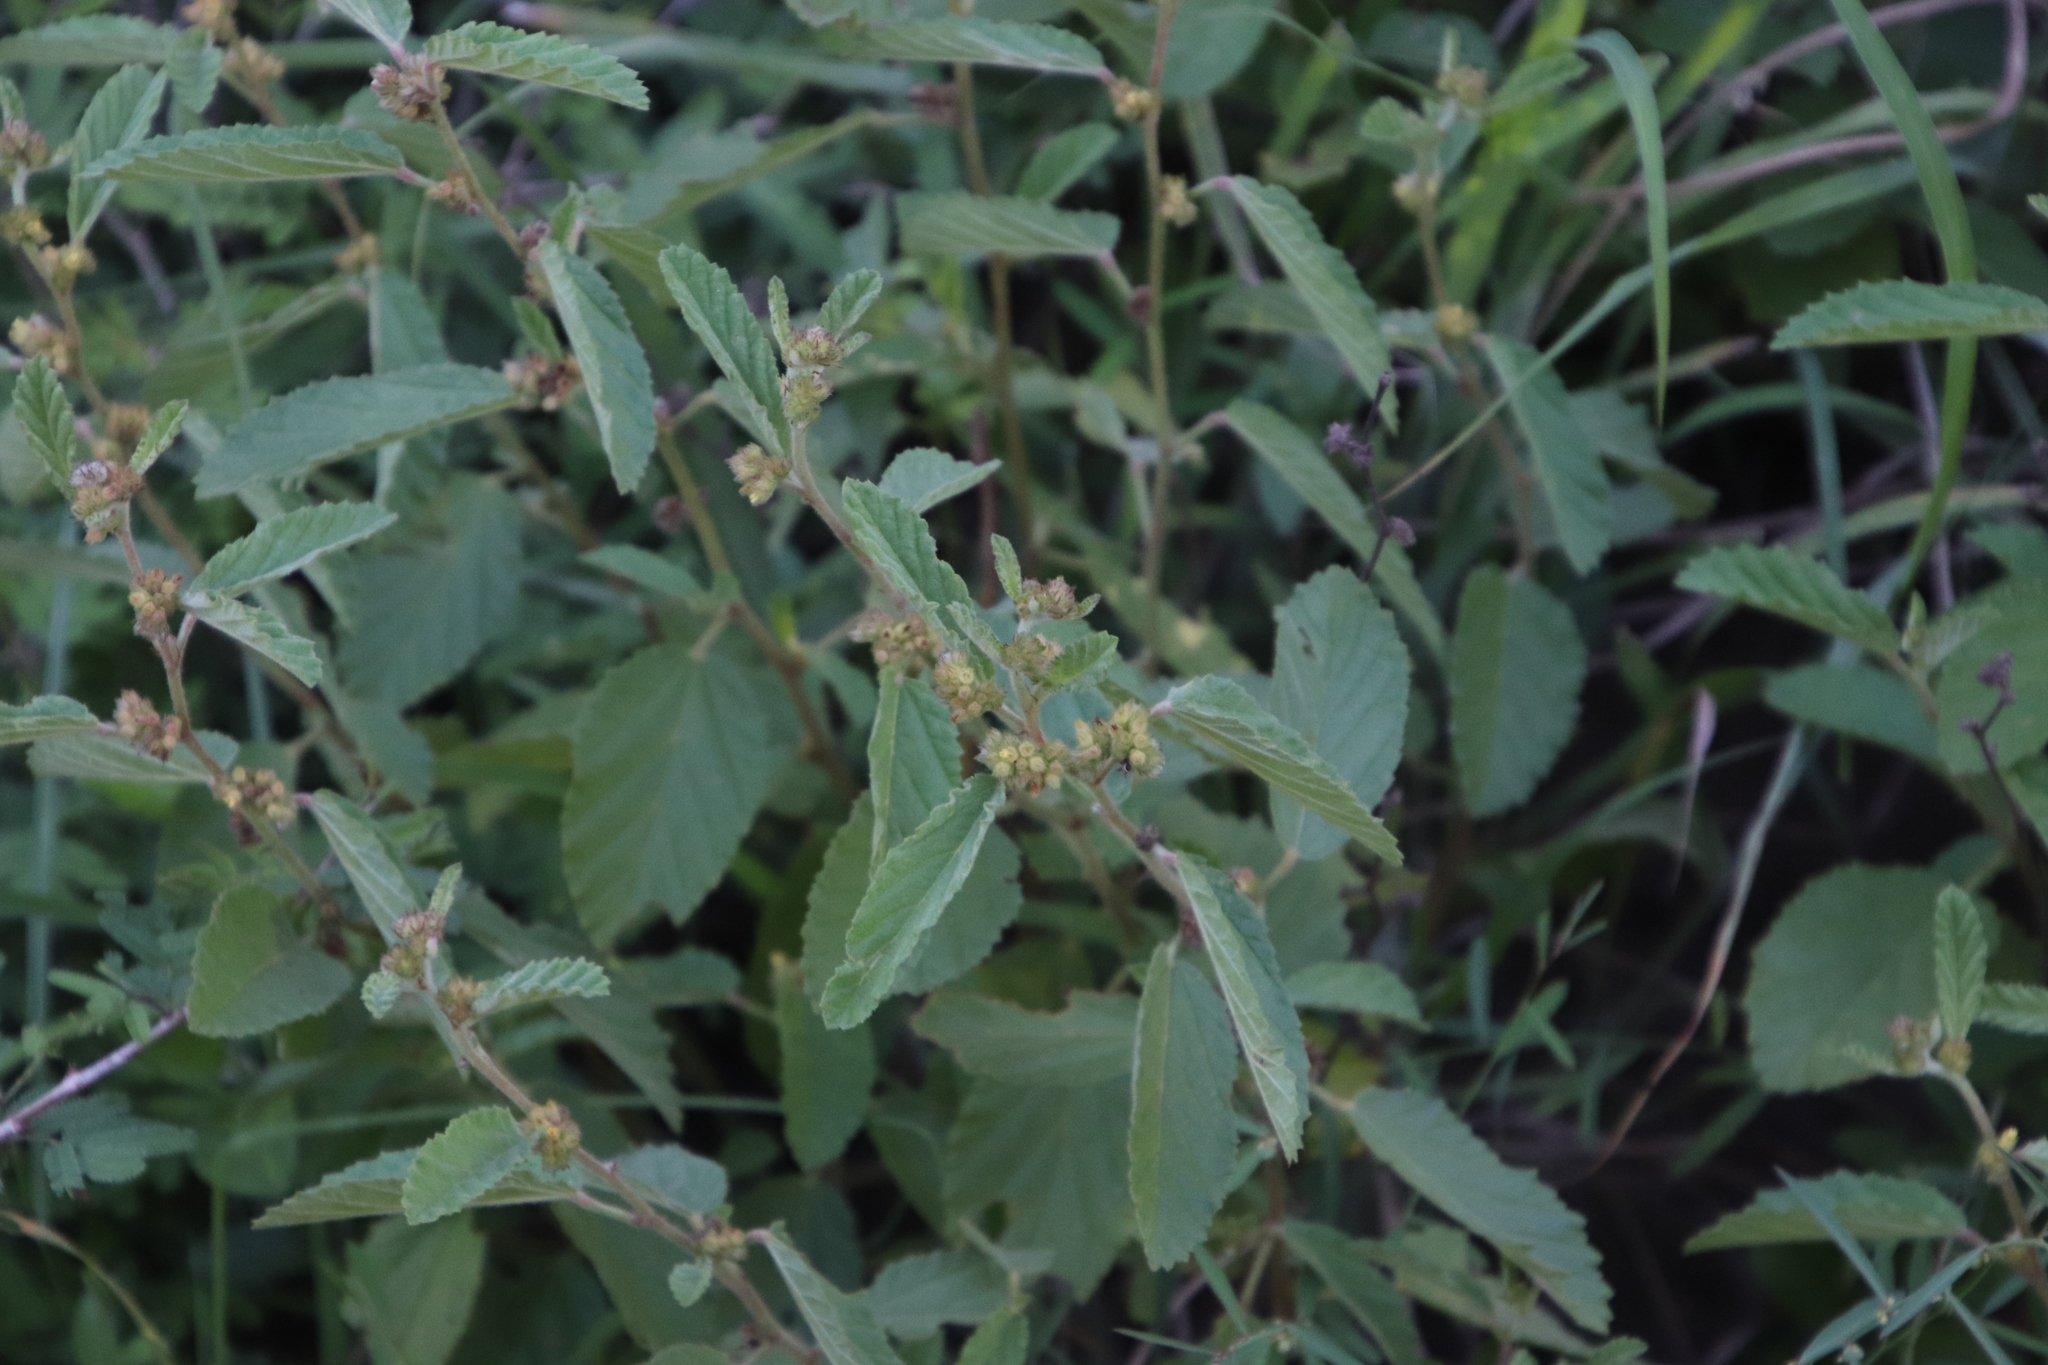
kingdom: Plantae
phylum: Tracheophyta
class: Magnoliopsida
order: Malvales
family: Malvaceae
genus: Waltheria
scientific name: Waltheria indica
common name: Leather-coat
